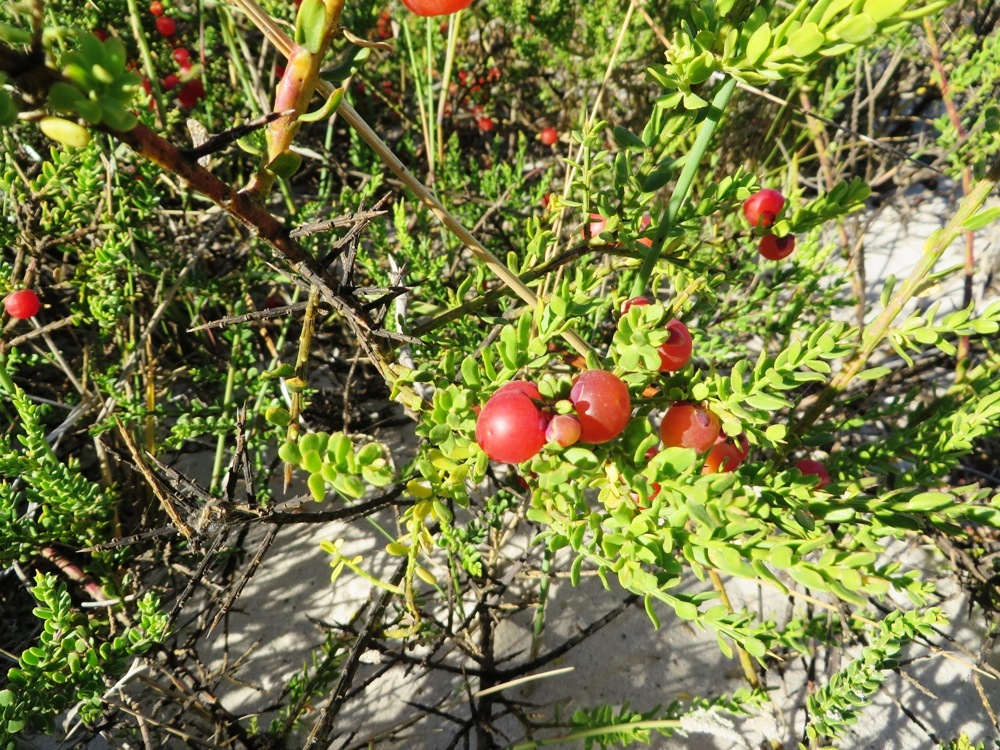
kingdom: Plantae
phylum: Tracheophyta
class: Magnoliopsida
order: Fabales
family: Polygalaceae
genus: Muraltia
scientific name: Muraltia spinosa
